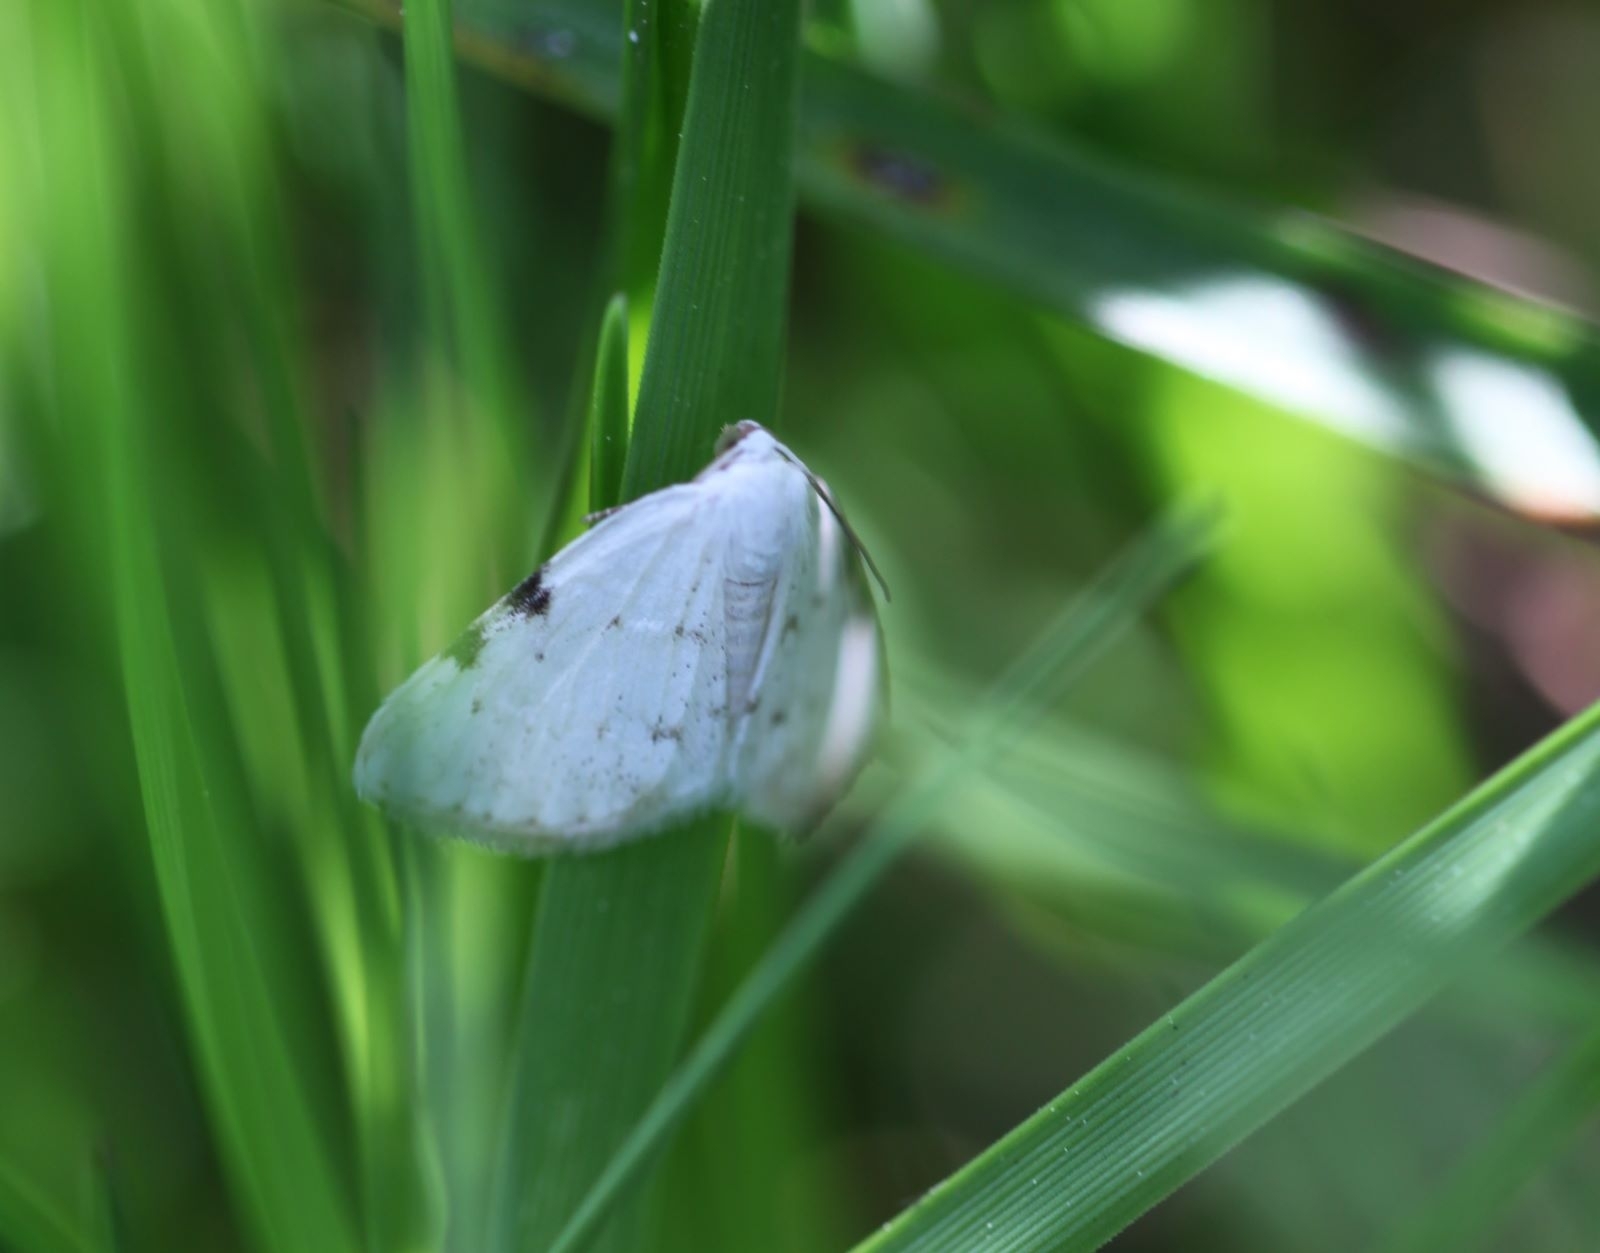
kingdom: Animalia
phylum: Arthropoda
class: Insecta
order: Lepidoptera
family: Geometridae
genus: Lomographa
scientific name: Lomographa bimaculata
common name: White-pinion spotted
